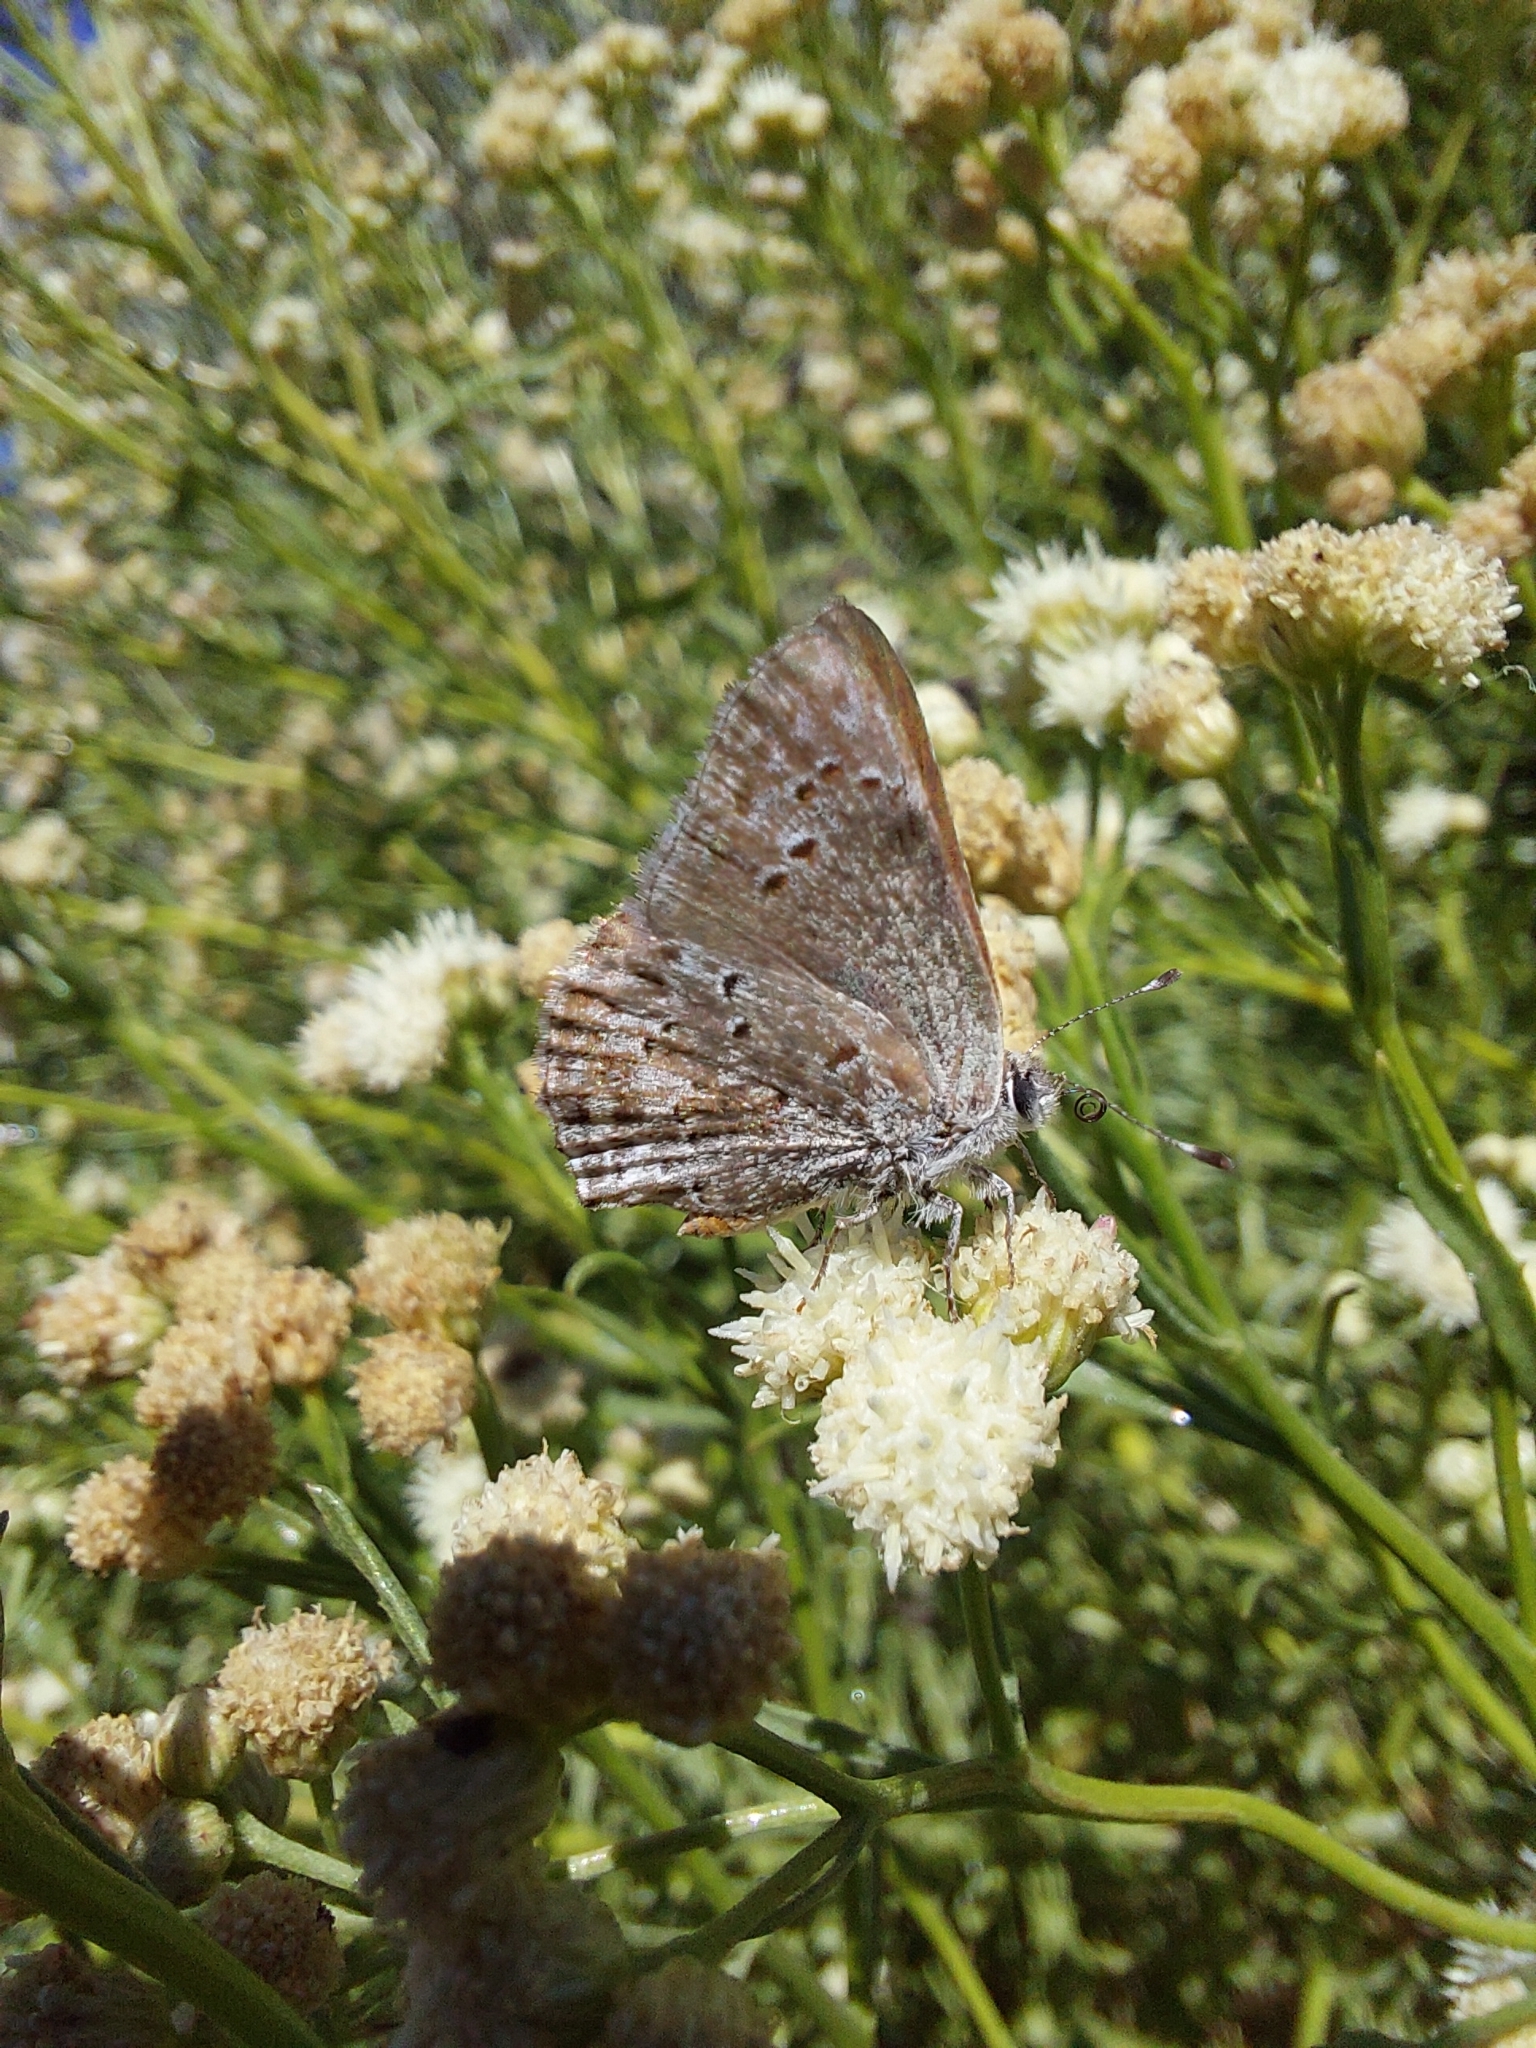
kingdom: Animalia
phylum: Arthropoda
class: Insecta
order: Lepidoptera
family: Lycaenidae
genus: Strymon
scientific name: Strymon eurytulus
